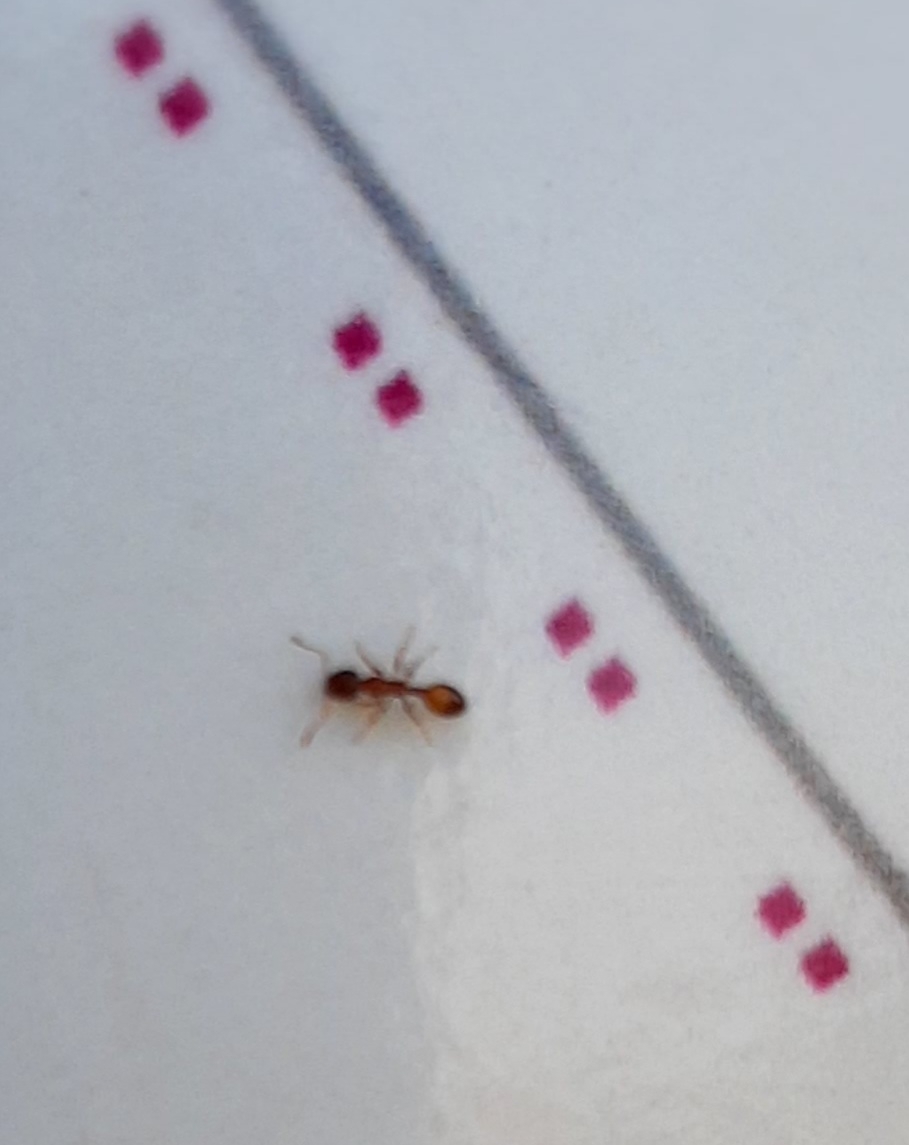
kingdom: Animalia
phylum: Arthropoda
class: Insecta
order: Hymenoptera
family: Formicidae
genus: Myrmicinae
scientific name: Myrmicinae
